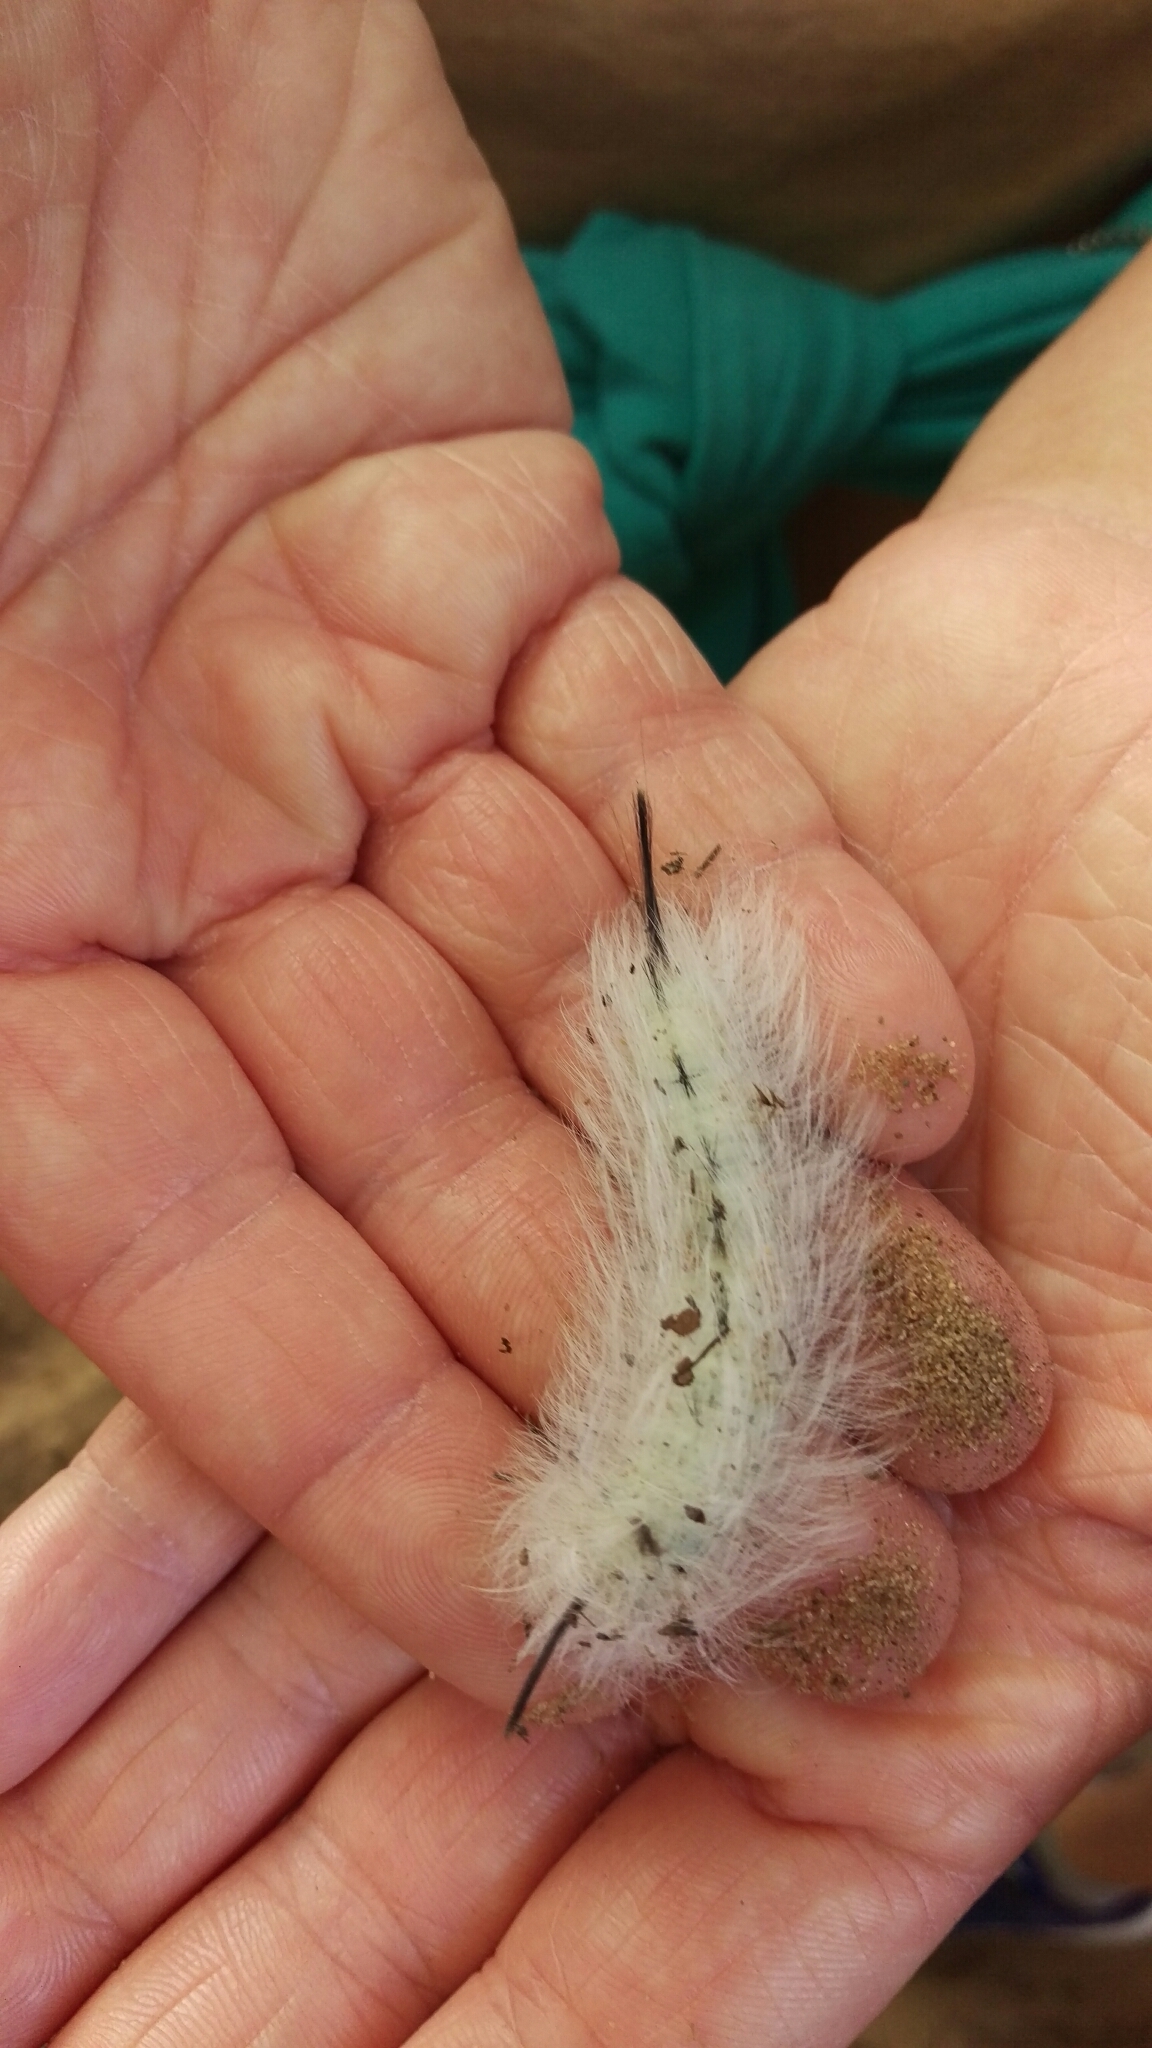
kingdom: Animalia
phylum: Arthropoda
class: Insecta
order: Lepidoptera
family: Apatelodidae
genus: Hygrochroa
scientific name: Hygrochroa Apatelodes torrefacta
